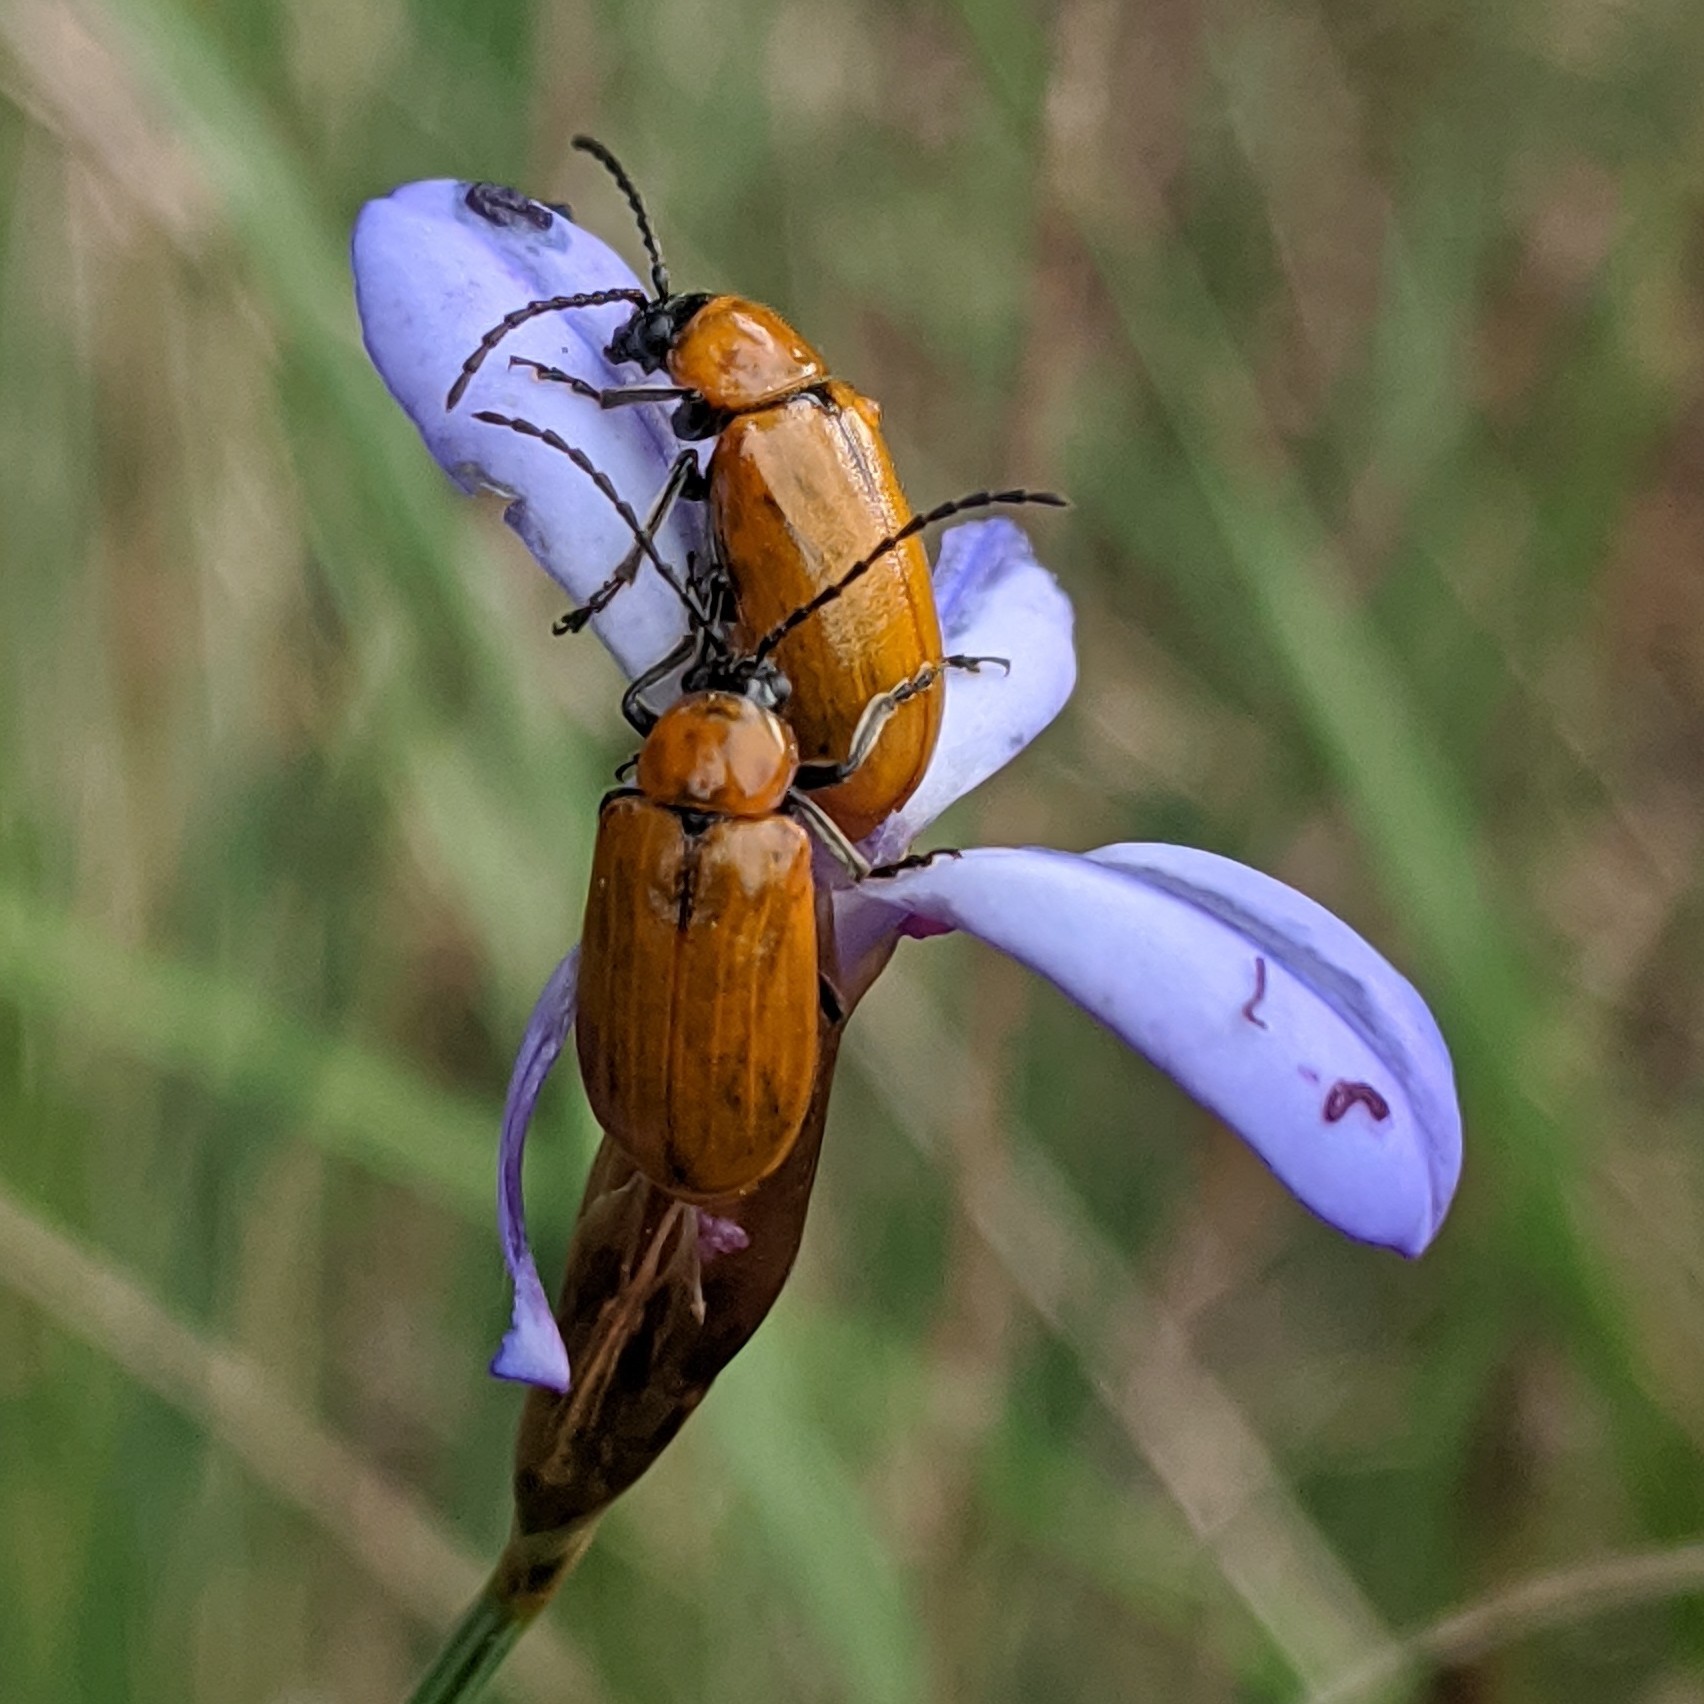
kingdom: Animalia
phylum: Arthropoda
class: Insecta
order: Coleoptera
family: Chrysomelidae
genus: Exosoma
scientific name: Exosoma lusitanicum
